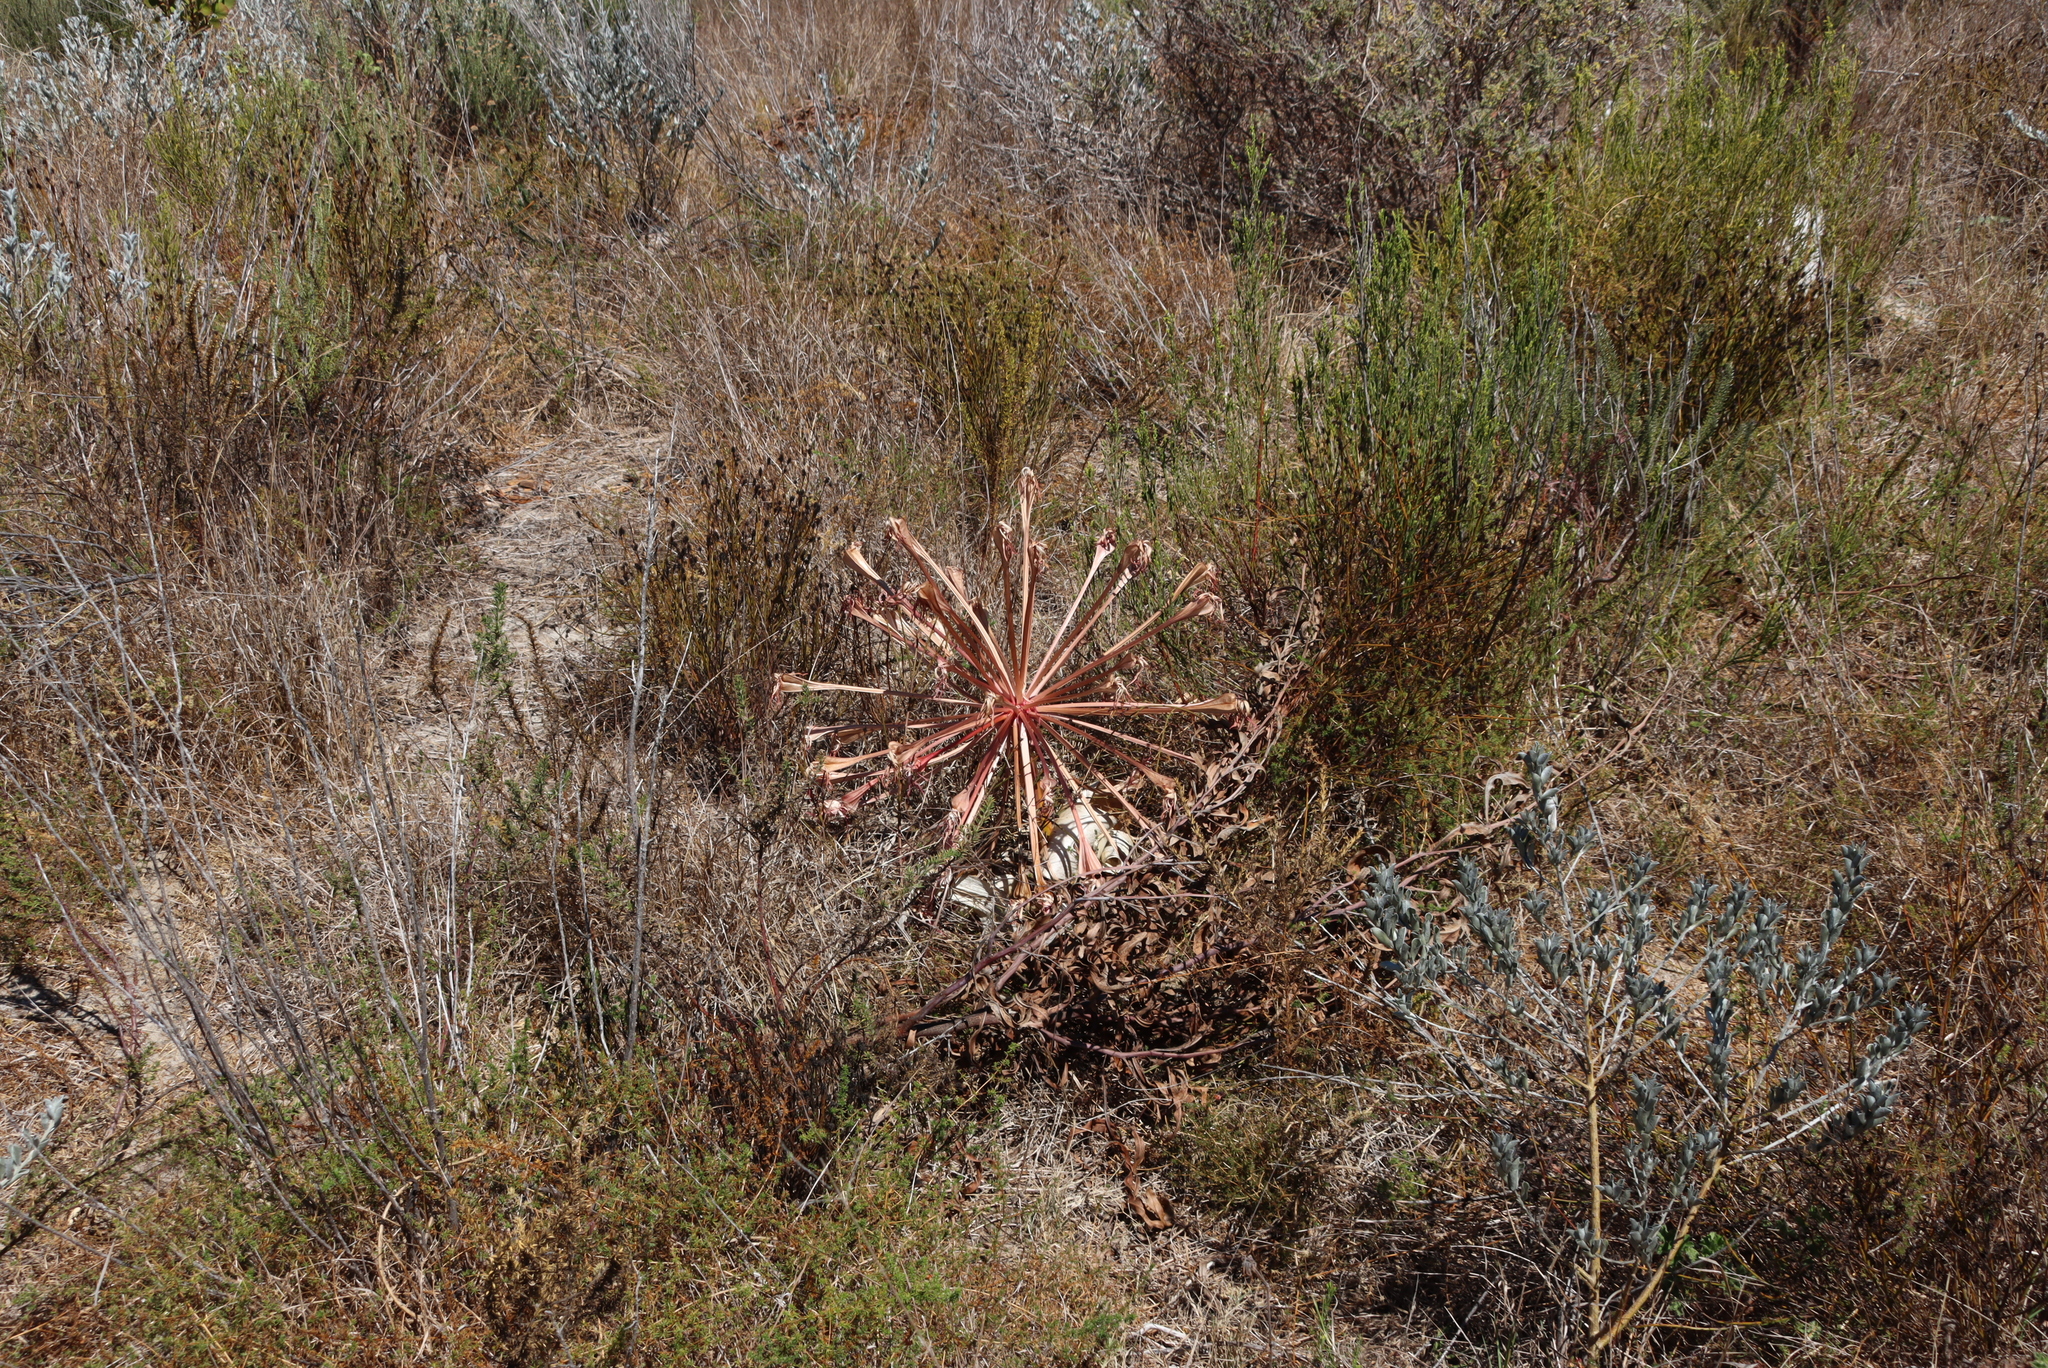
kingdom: Plantae
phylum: Tracheophyta
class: Liliopsida
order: Asparagales
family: Amaryllidaceae
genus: Brunsvigia
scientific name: Brunsvigia orientalis
